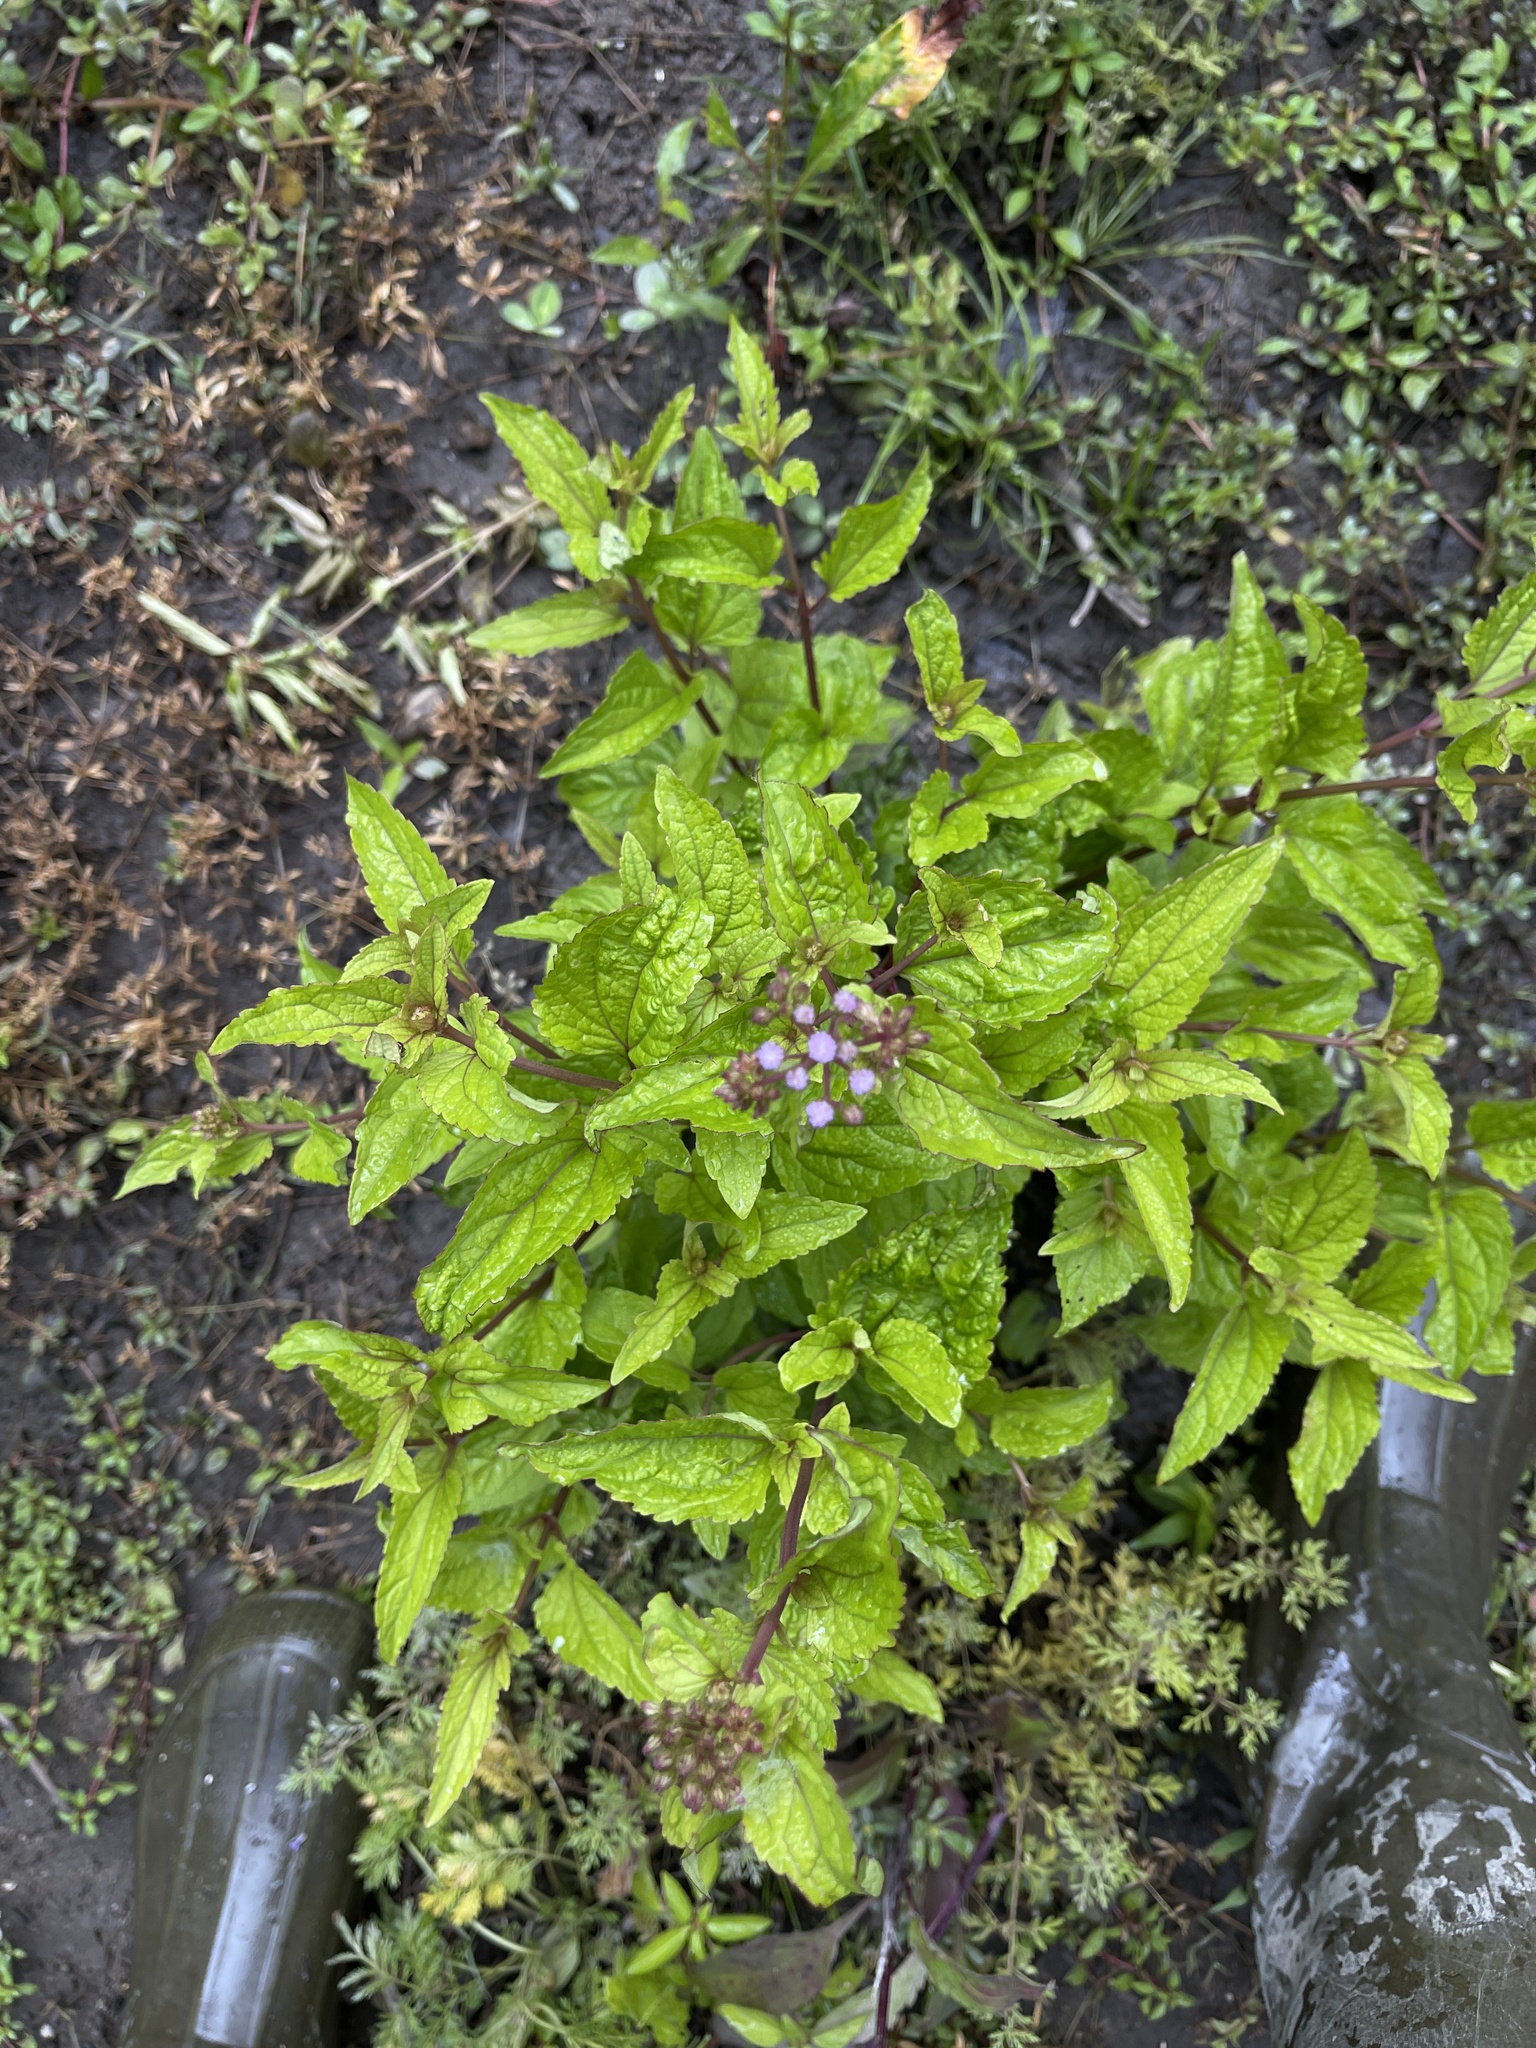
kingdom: Plantae
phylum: Tracheophyta
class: Magnoliopsida
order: Asterales
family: Asteraceae
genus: Conoclinium
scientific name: Conoclinium coelestinum
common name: Blue mistflower
